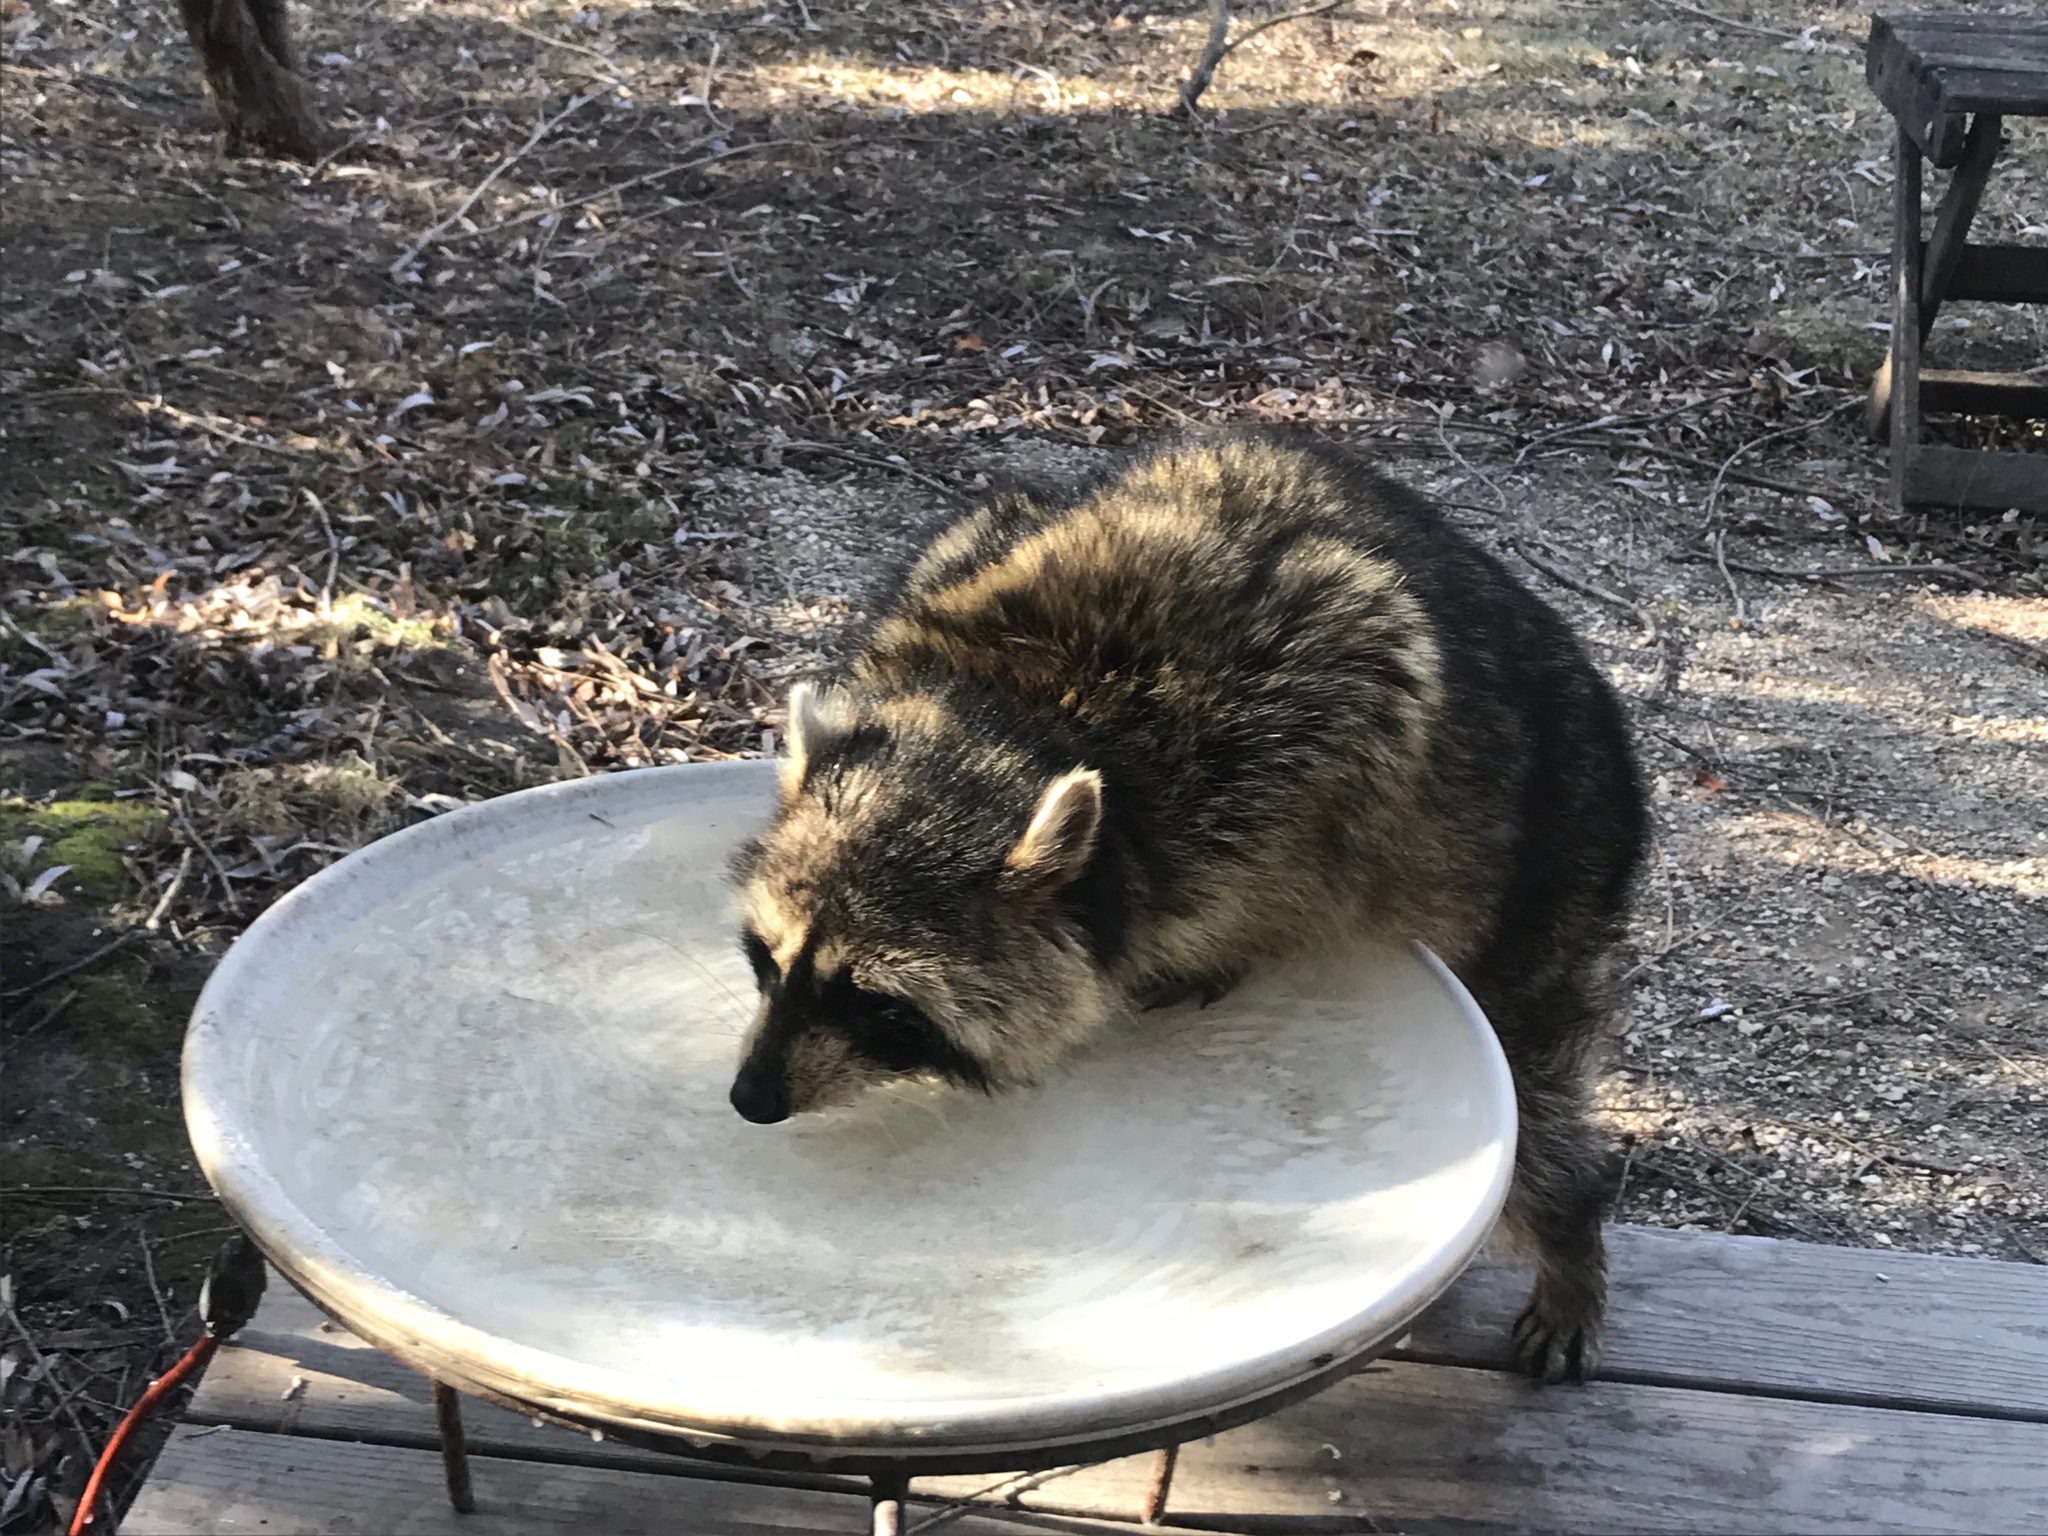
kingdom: Animalia
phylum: Chordata
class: Mammalia
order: Carnivora
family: Procyonidae
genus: Procyon
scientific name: Procyon lotor
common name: Raccoon
